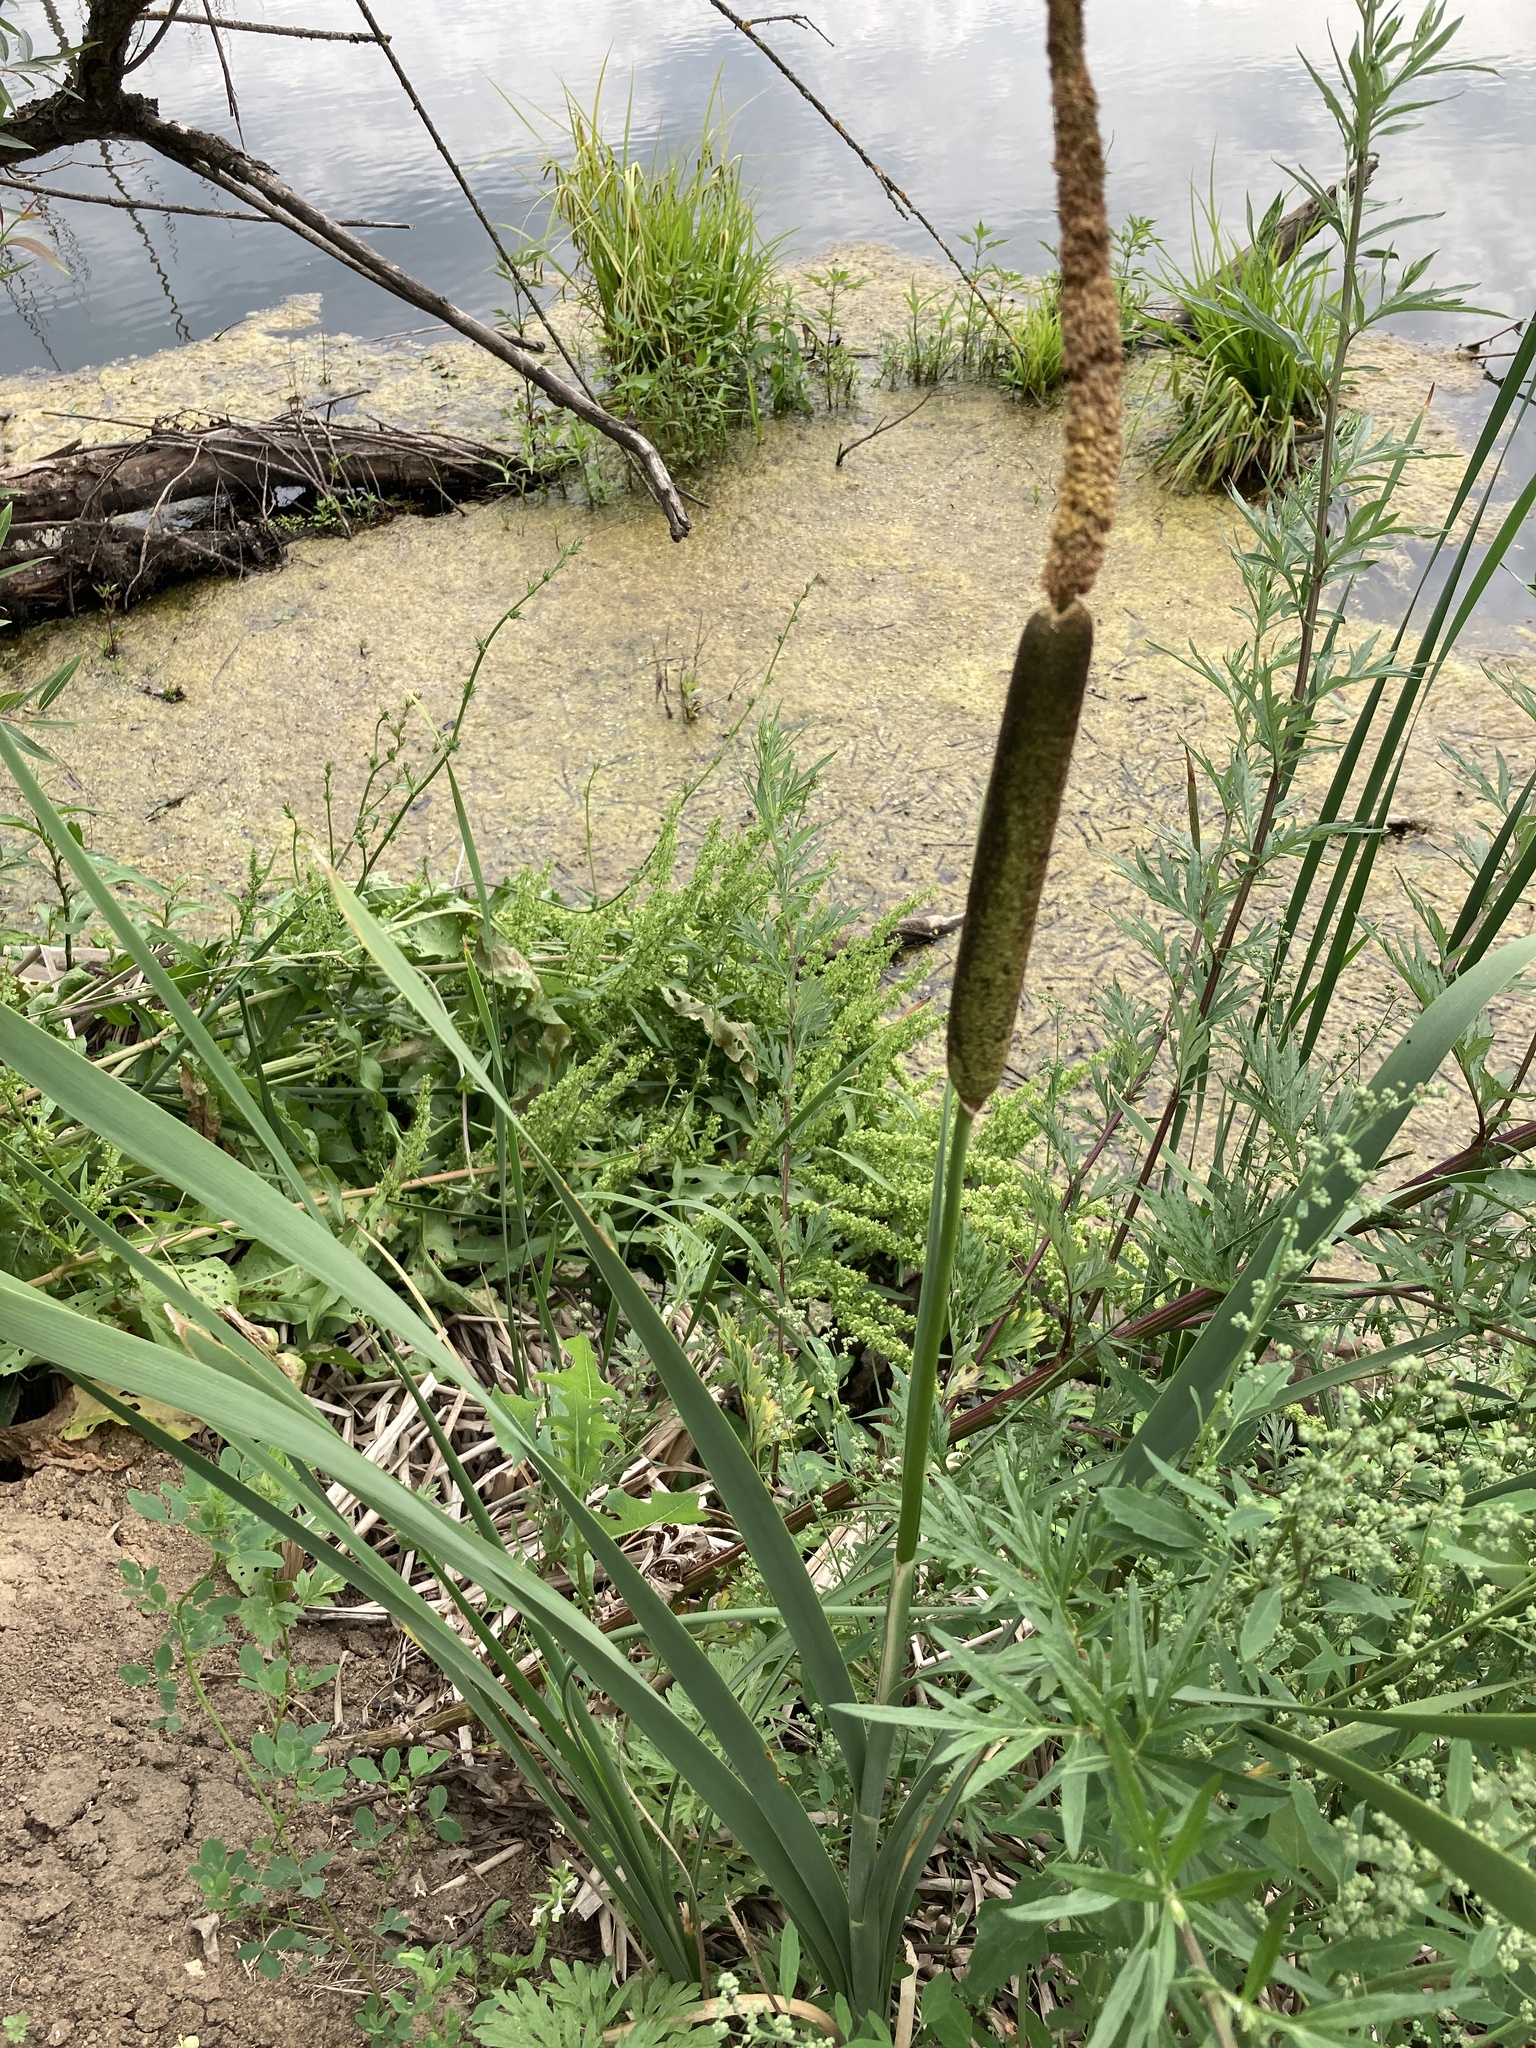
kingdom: Plantae
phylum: Tracheophyta
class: Liliopsida
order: Poales
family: Typhaceae
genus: Typha
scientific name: Typha latifolia
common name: Broadleaf cattail
